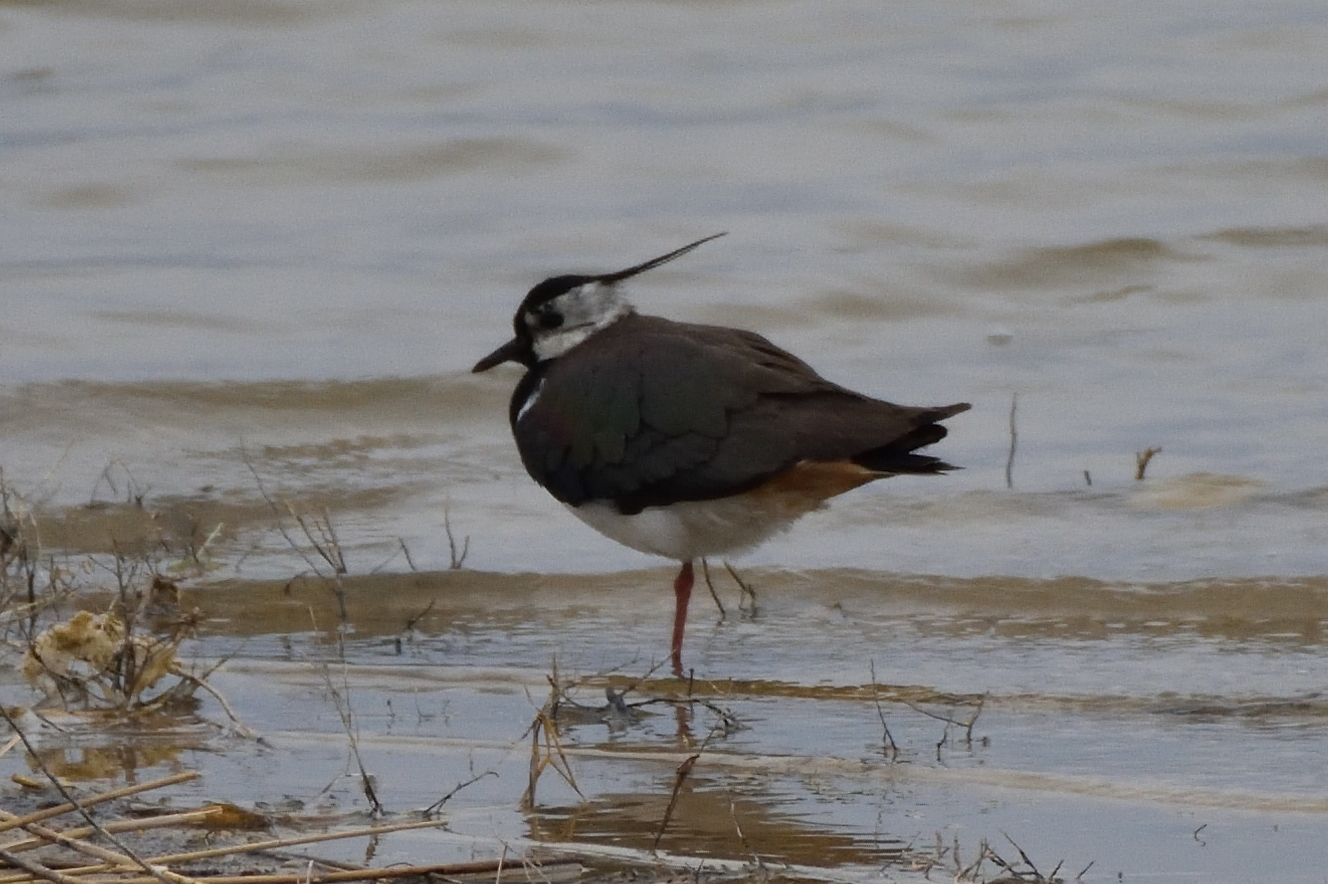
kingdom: Animalia
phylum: Chordata
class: Aves
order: Charadriiformes
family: Charadriidae
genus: Vanellus
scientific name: Vanellus vanellus
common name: Northern lapwing
